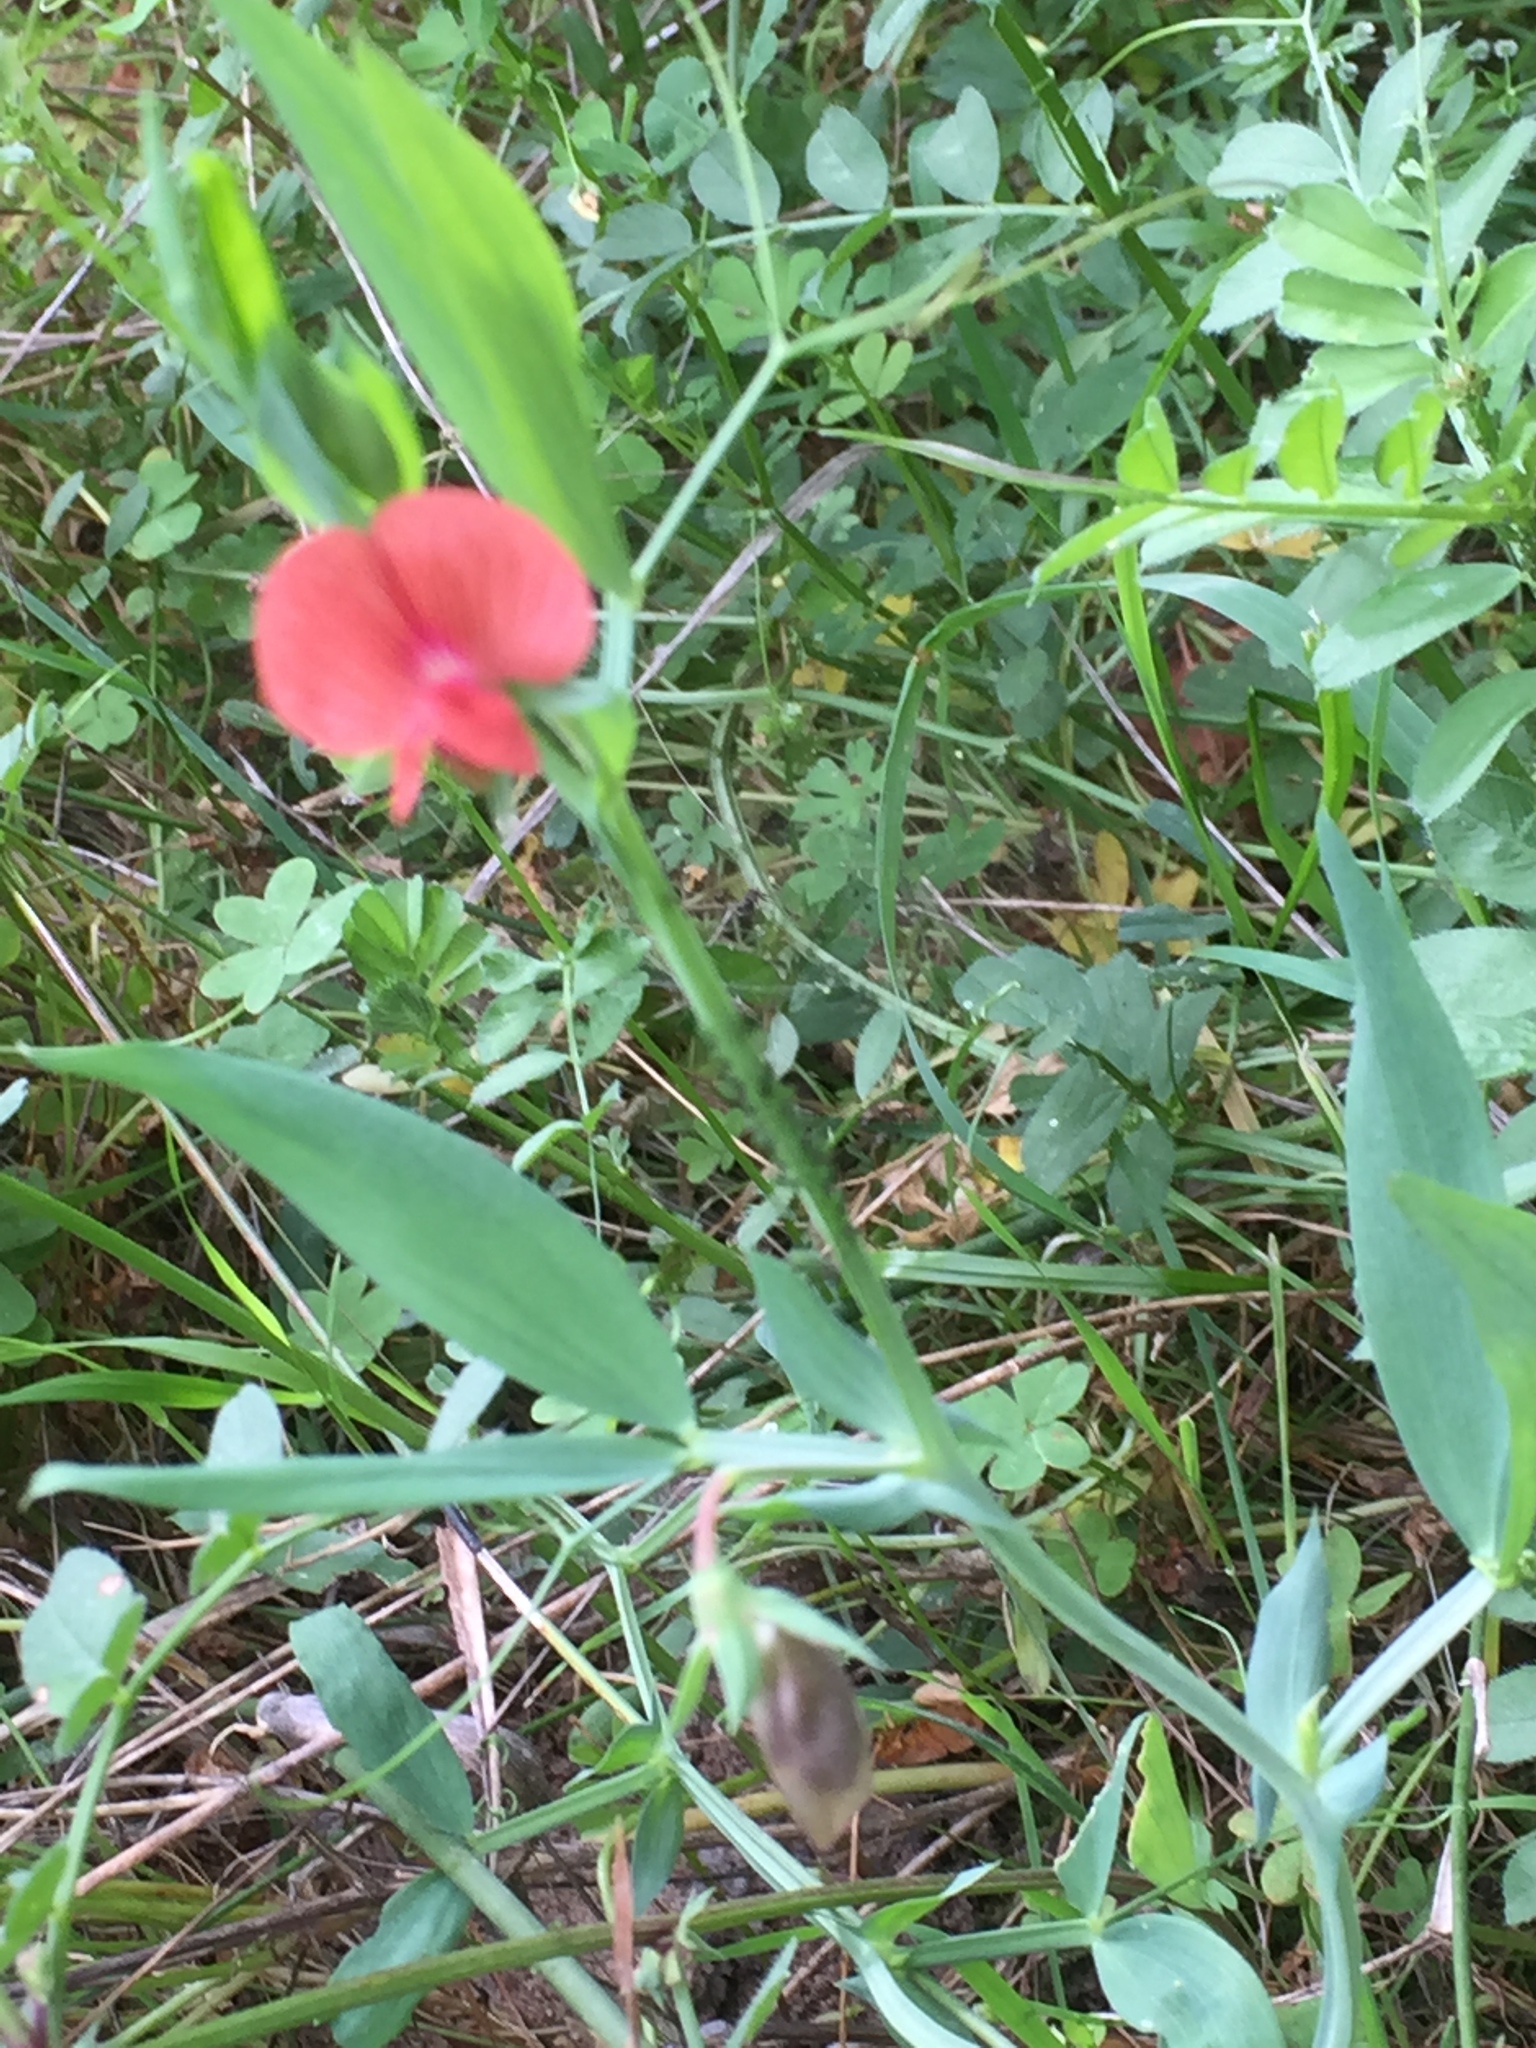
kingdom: Plantae
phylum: Tracheophyta
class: Magnoliopsida
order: Fabales
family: Fabaceae
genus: Lathyrus
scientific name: Lathyrus cicera
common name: Red vetchling
